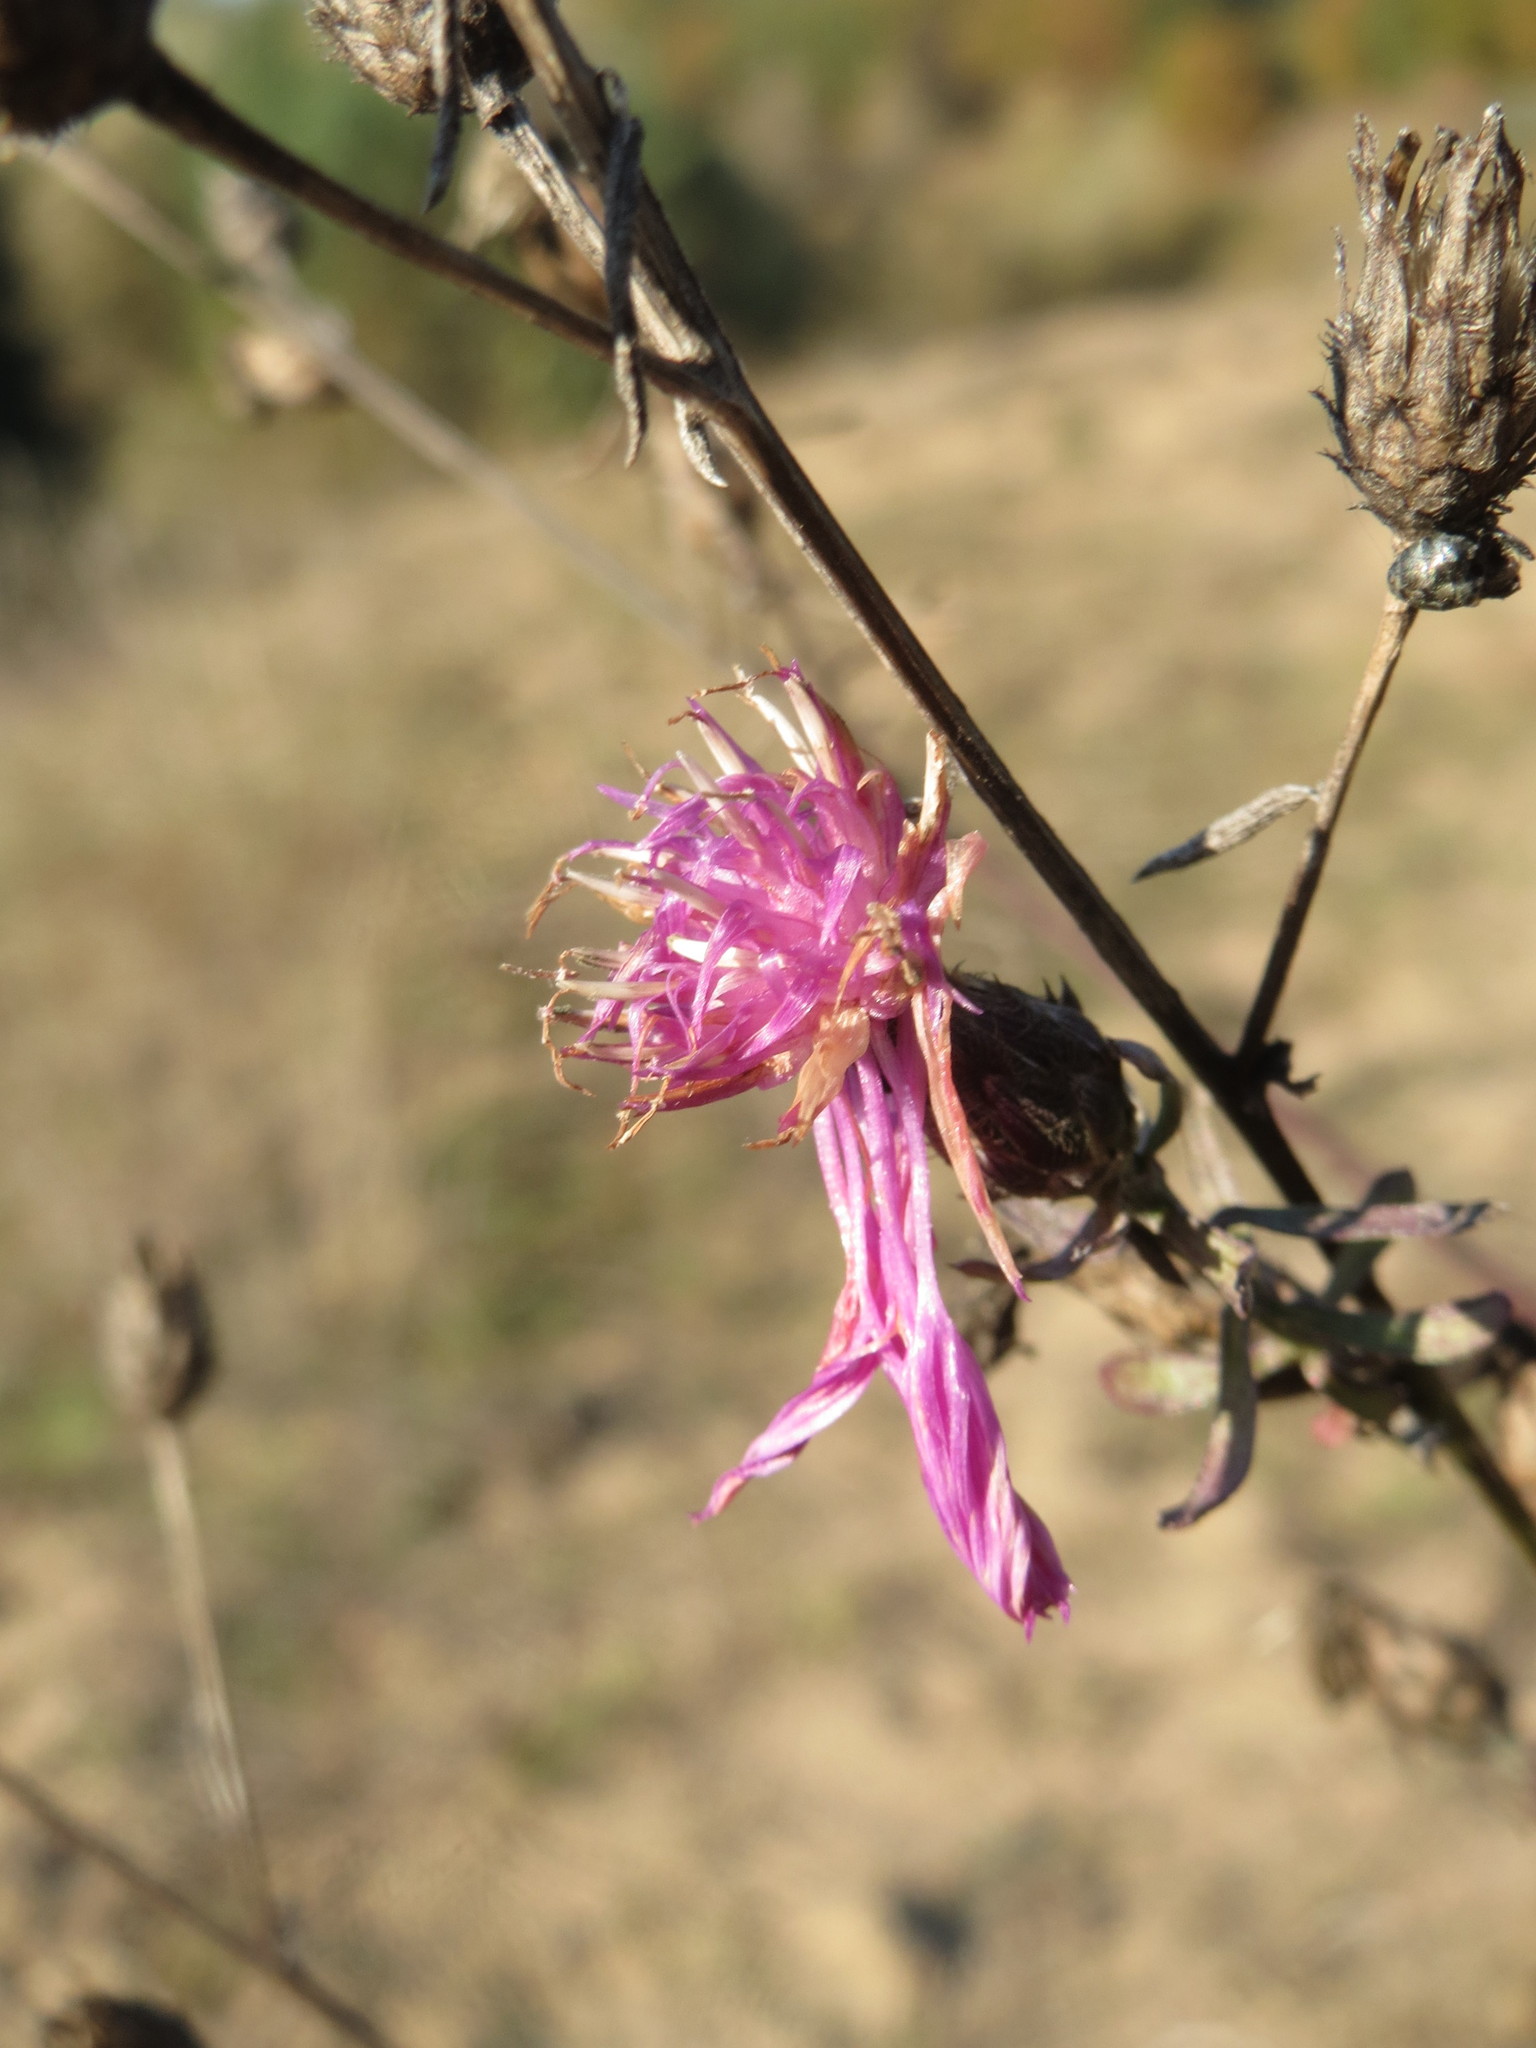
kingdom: Plantae
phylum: Tracheophyta
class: Magnoliopsida
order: Asterales
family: Asteraceae
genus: Centaurea
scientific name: Centaurea stoebe
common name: Spotted knapweed
